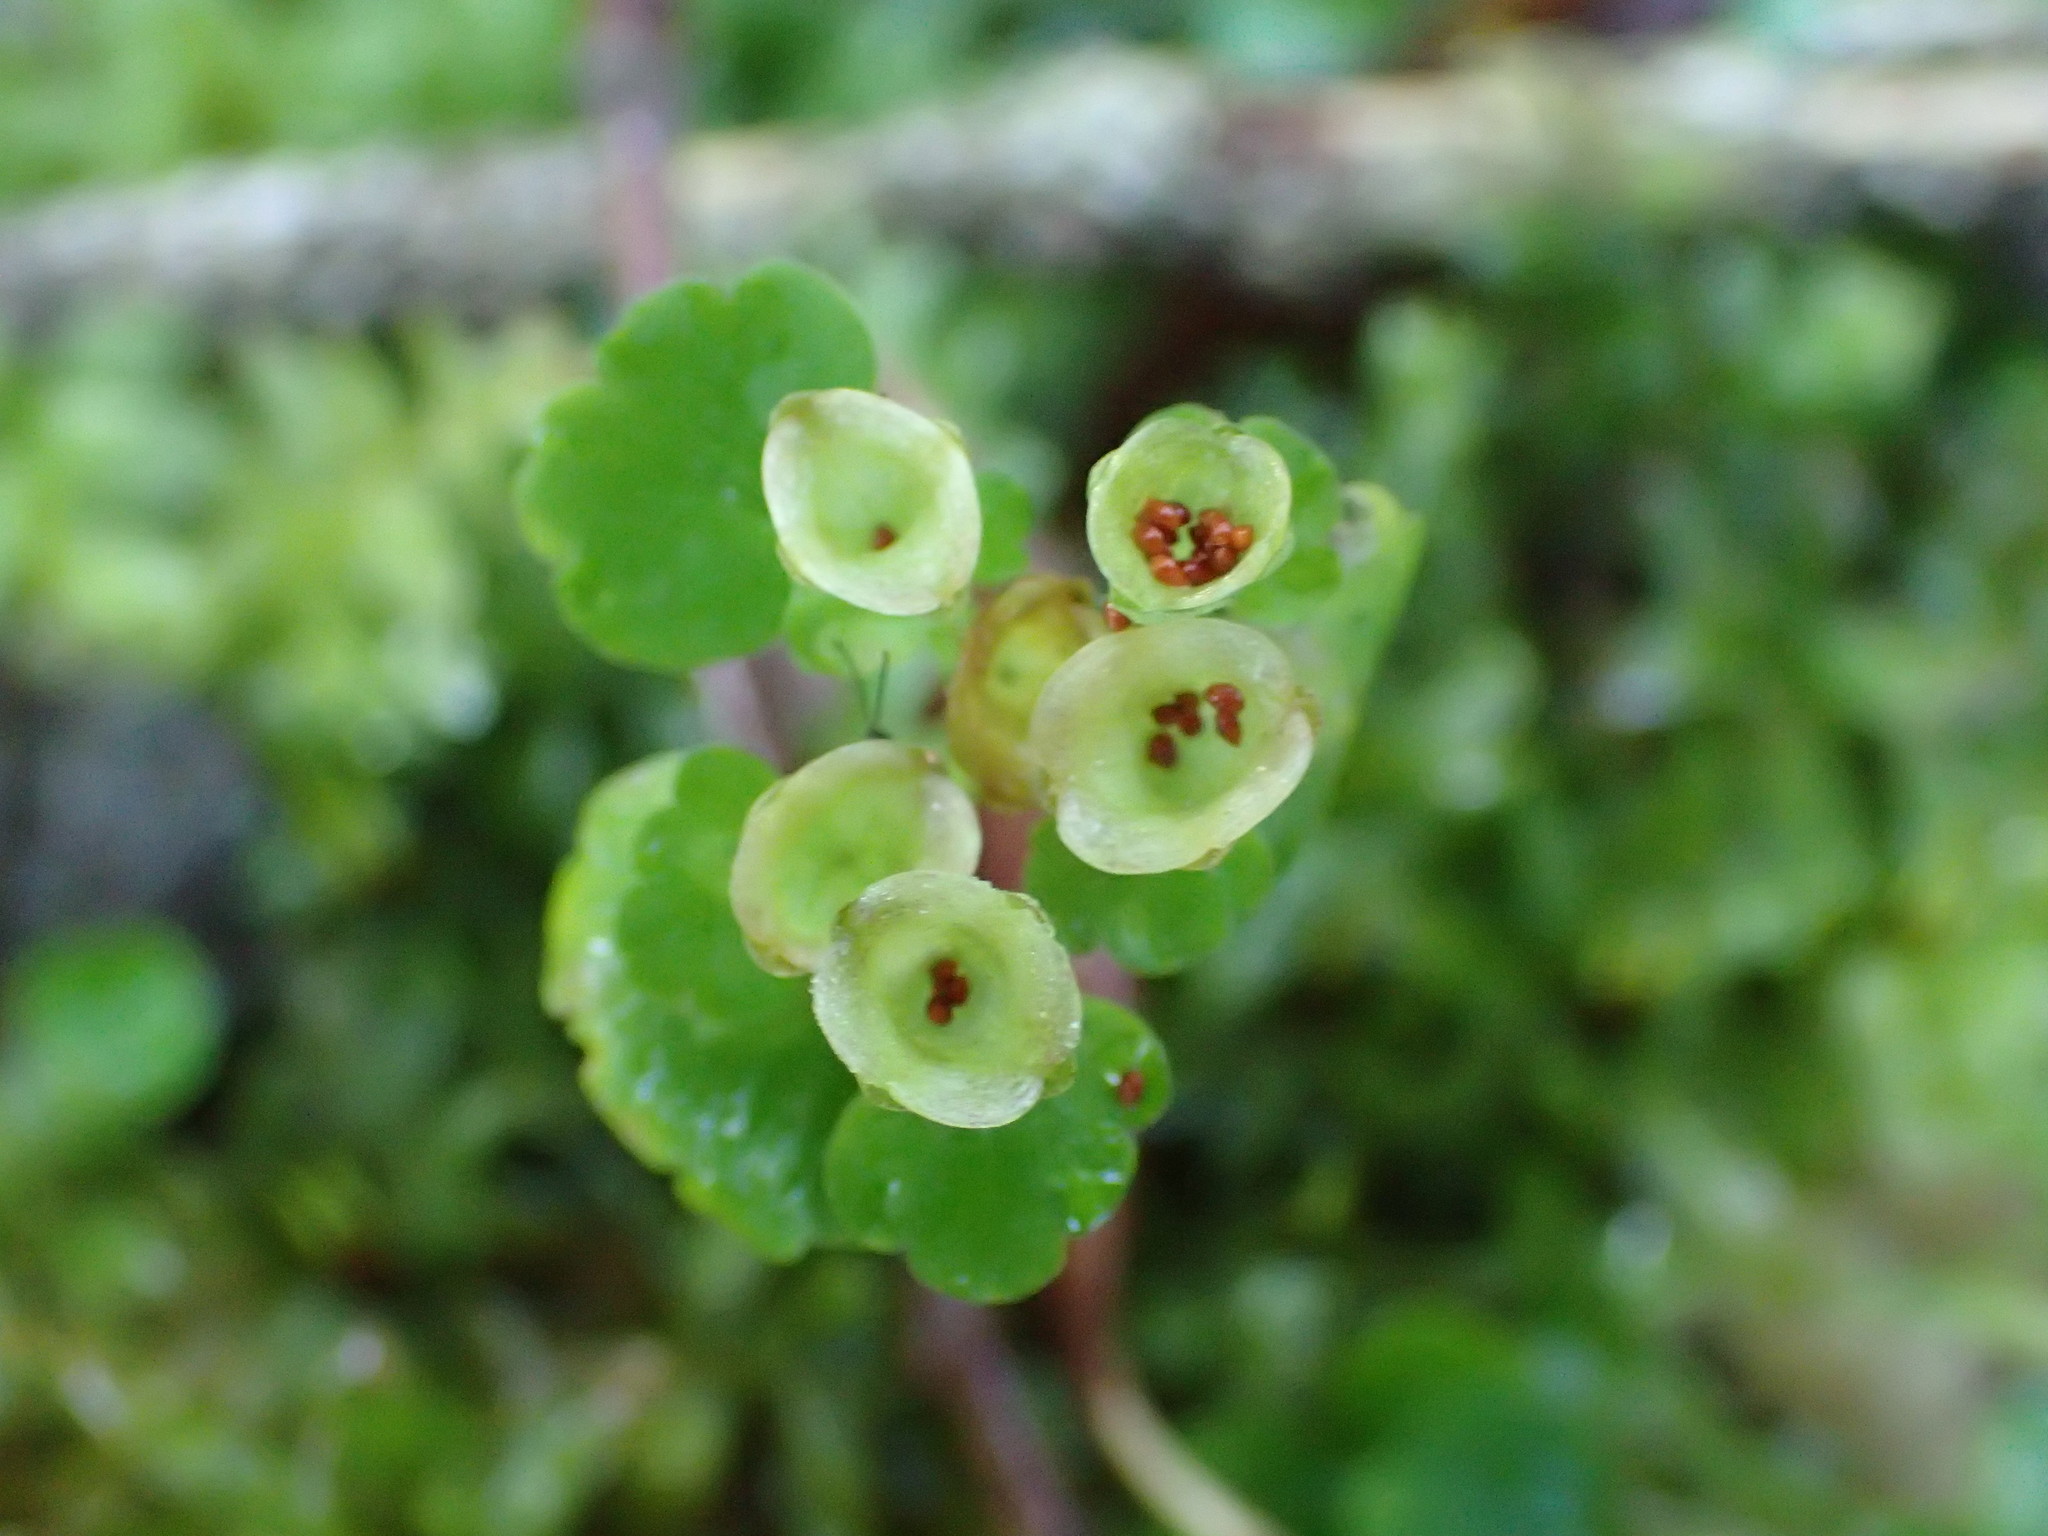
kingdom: Plantae
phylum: Tracheophyta
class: Magnoliopsida
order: Saxifragales
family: Saxifragaceae
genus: Chrysosplenium
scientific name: Chrysosplenium tetrandrum
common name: Green saxifrage
